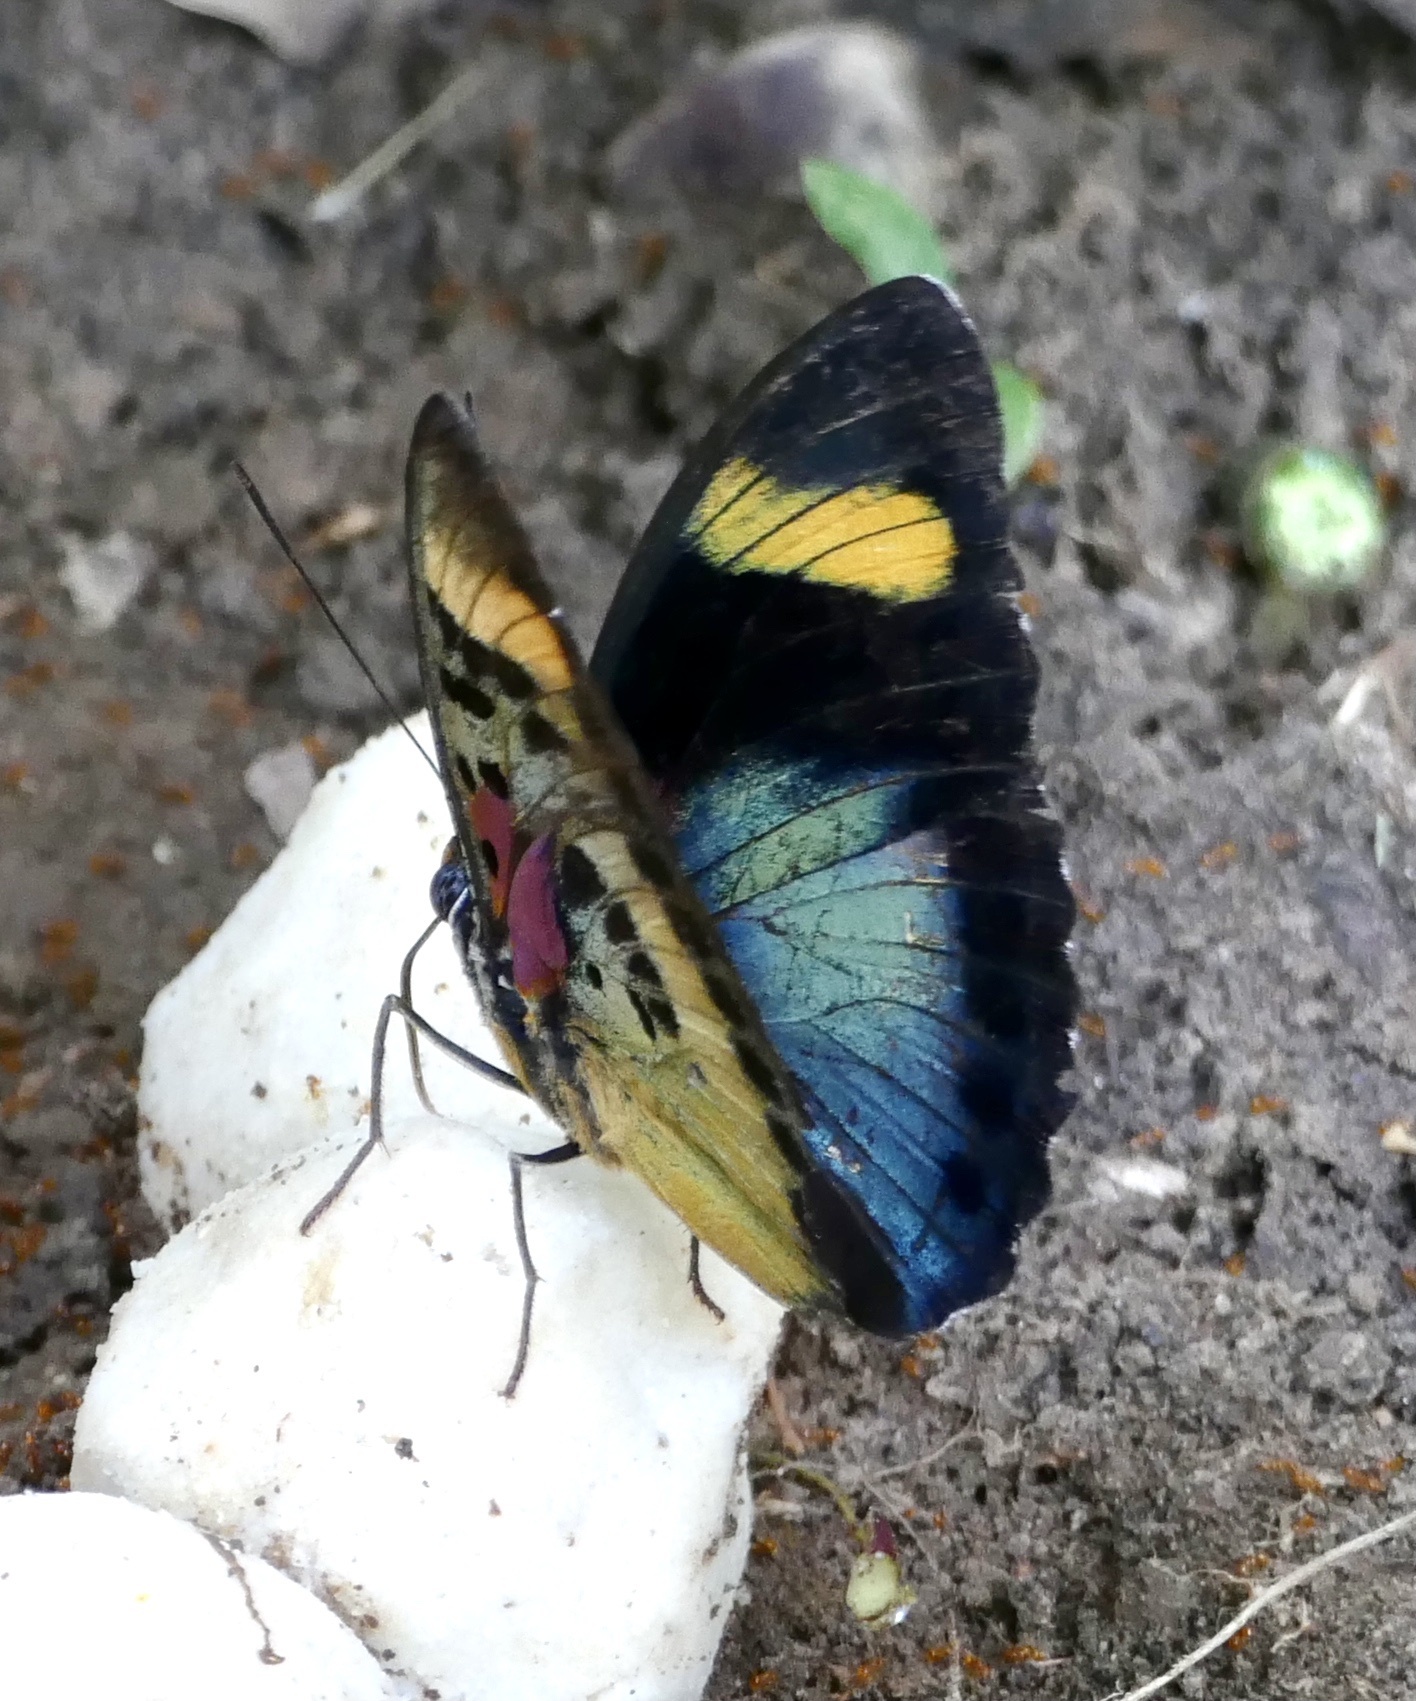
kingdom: Animalia
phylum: Arthropoda
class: Insecta
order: Lepidoptera
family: Nymphalidae
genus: Euphaedra
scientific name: Euphaedra themis
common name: Themis forester
